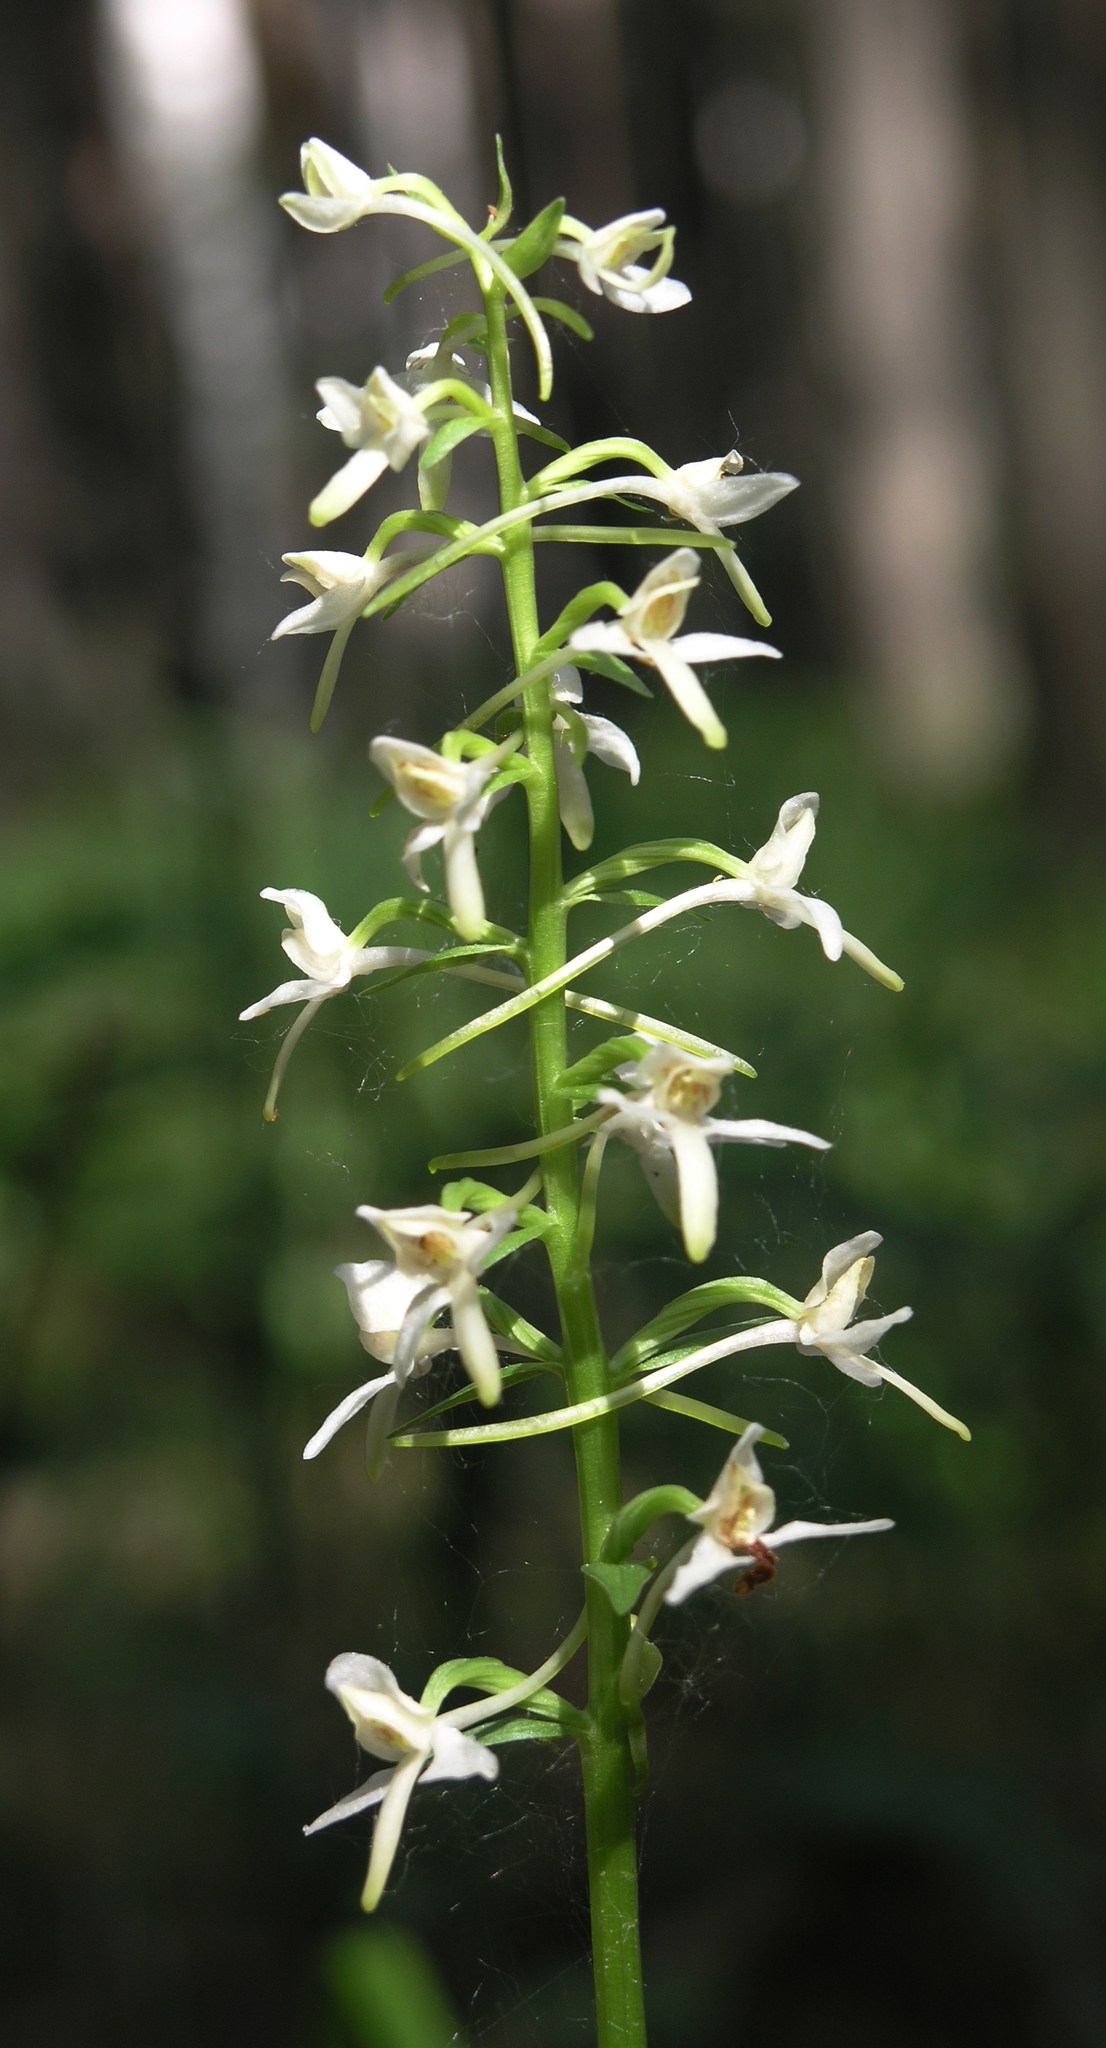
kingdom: Plantae
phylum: Tracheophyta
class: Liliopsida
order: Asparagales
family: Orchidaceae
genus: Platanthera
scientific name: Platanthera bifolia
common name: Lesser butterfly-orchid
